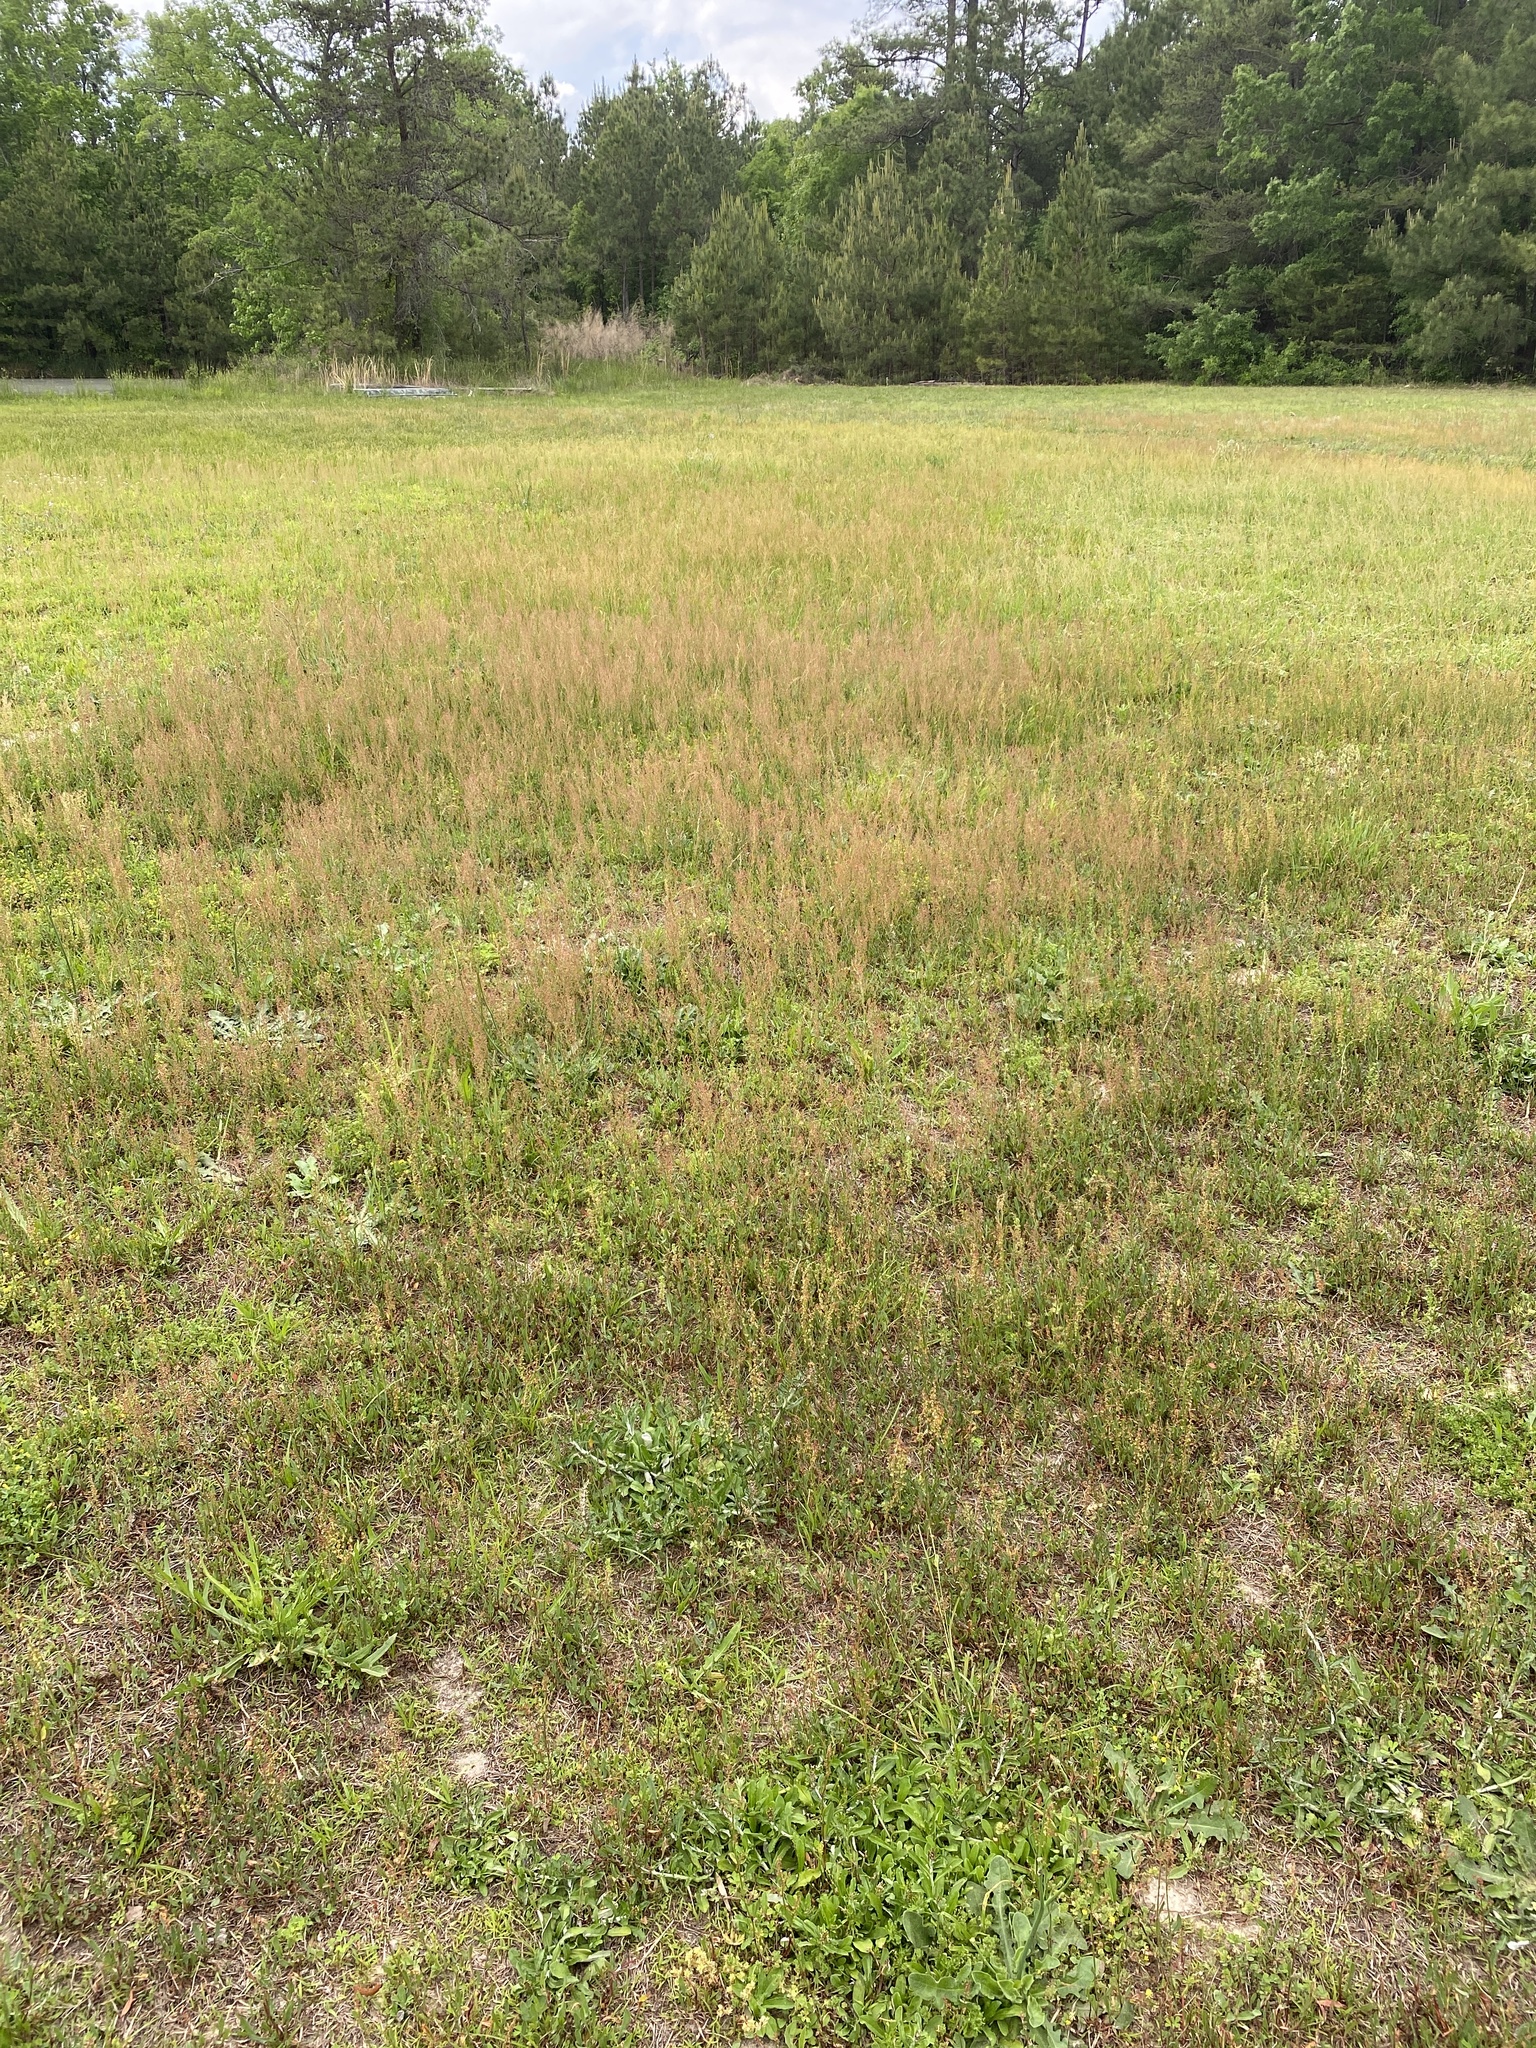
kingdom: Plantae
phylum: Tracheophyta
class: Magnoliopsida
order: Caryophyllales
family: Polygonaceae
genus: Rumex
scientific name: Rumex acetosella
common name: Common sheep sorrel
